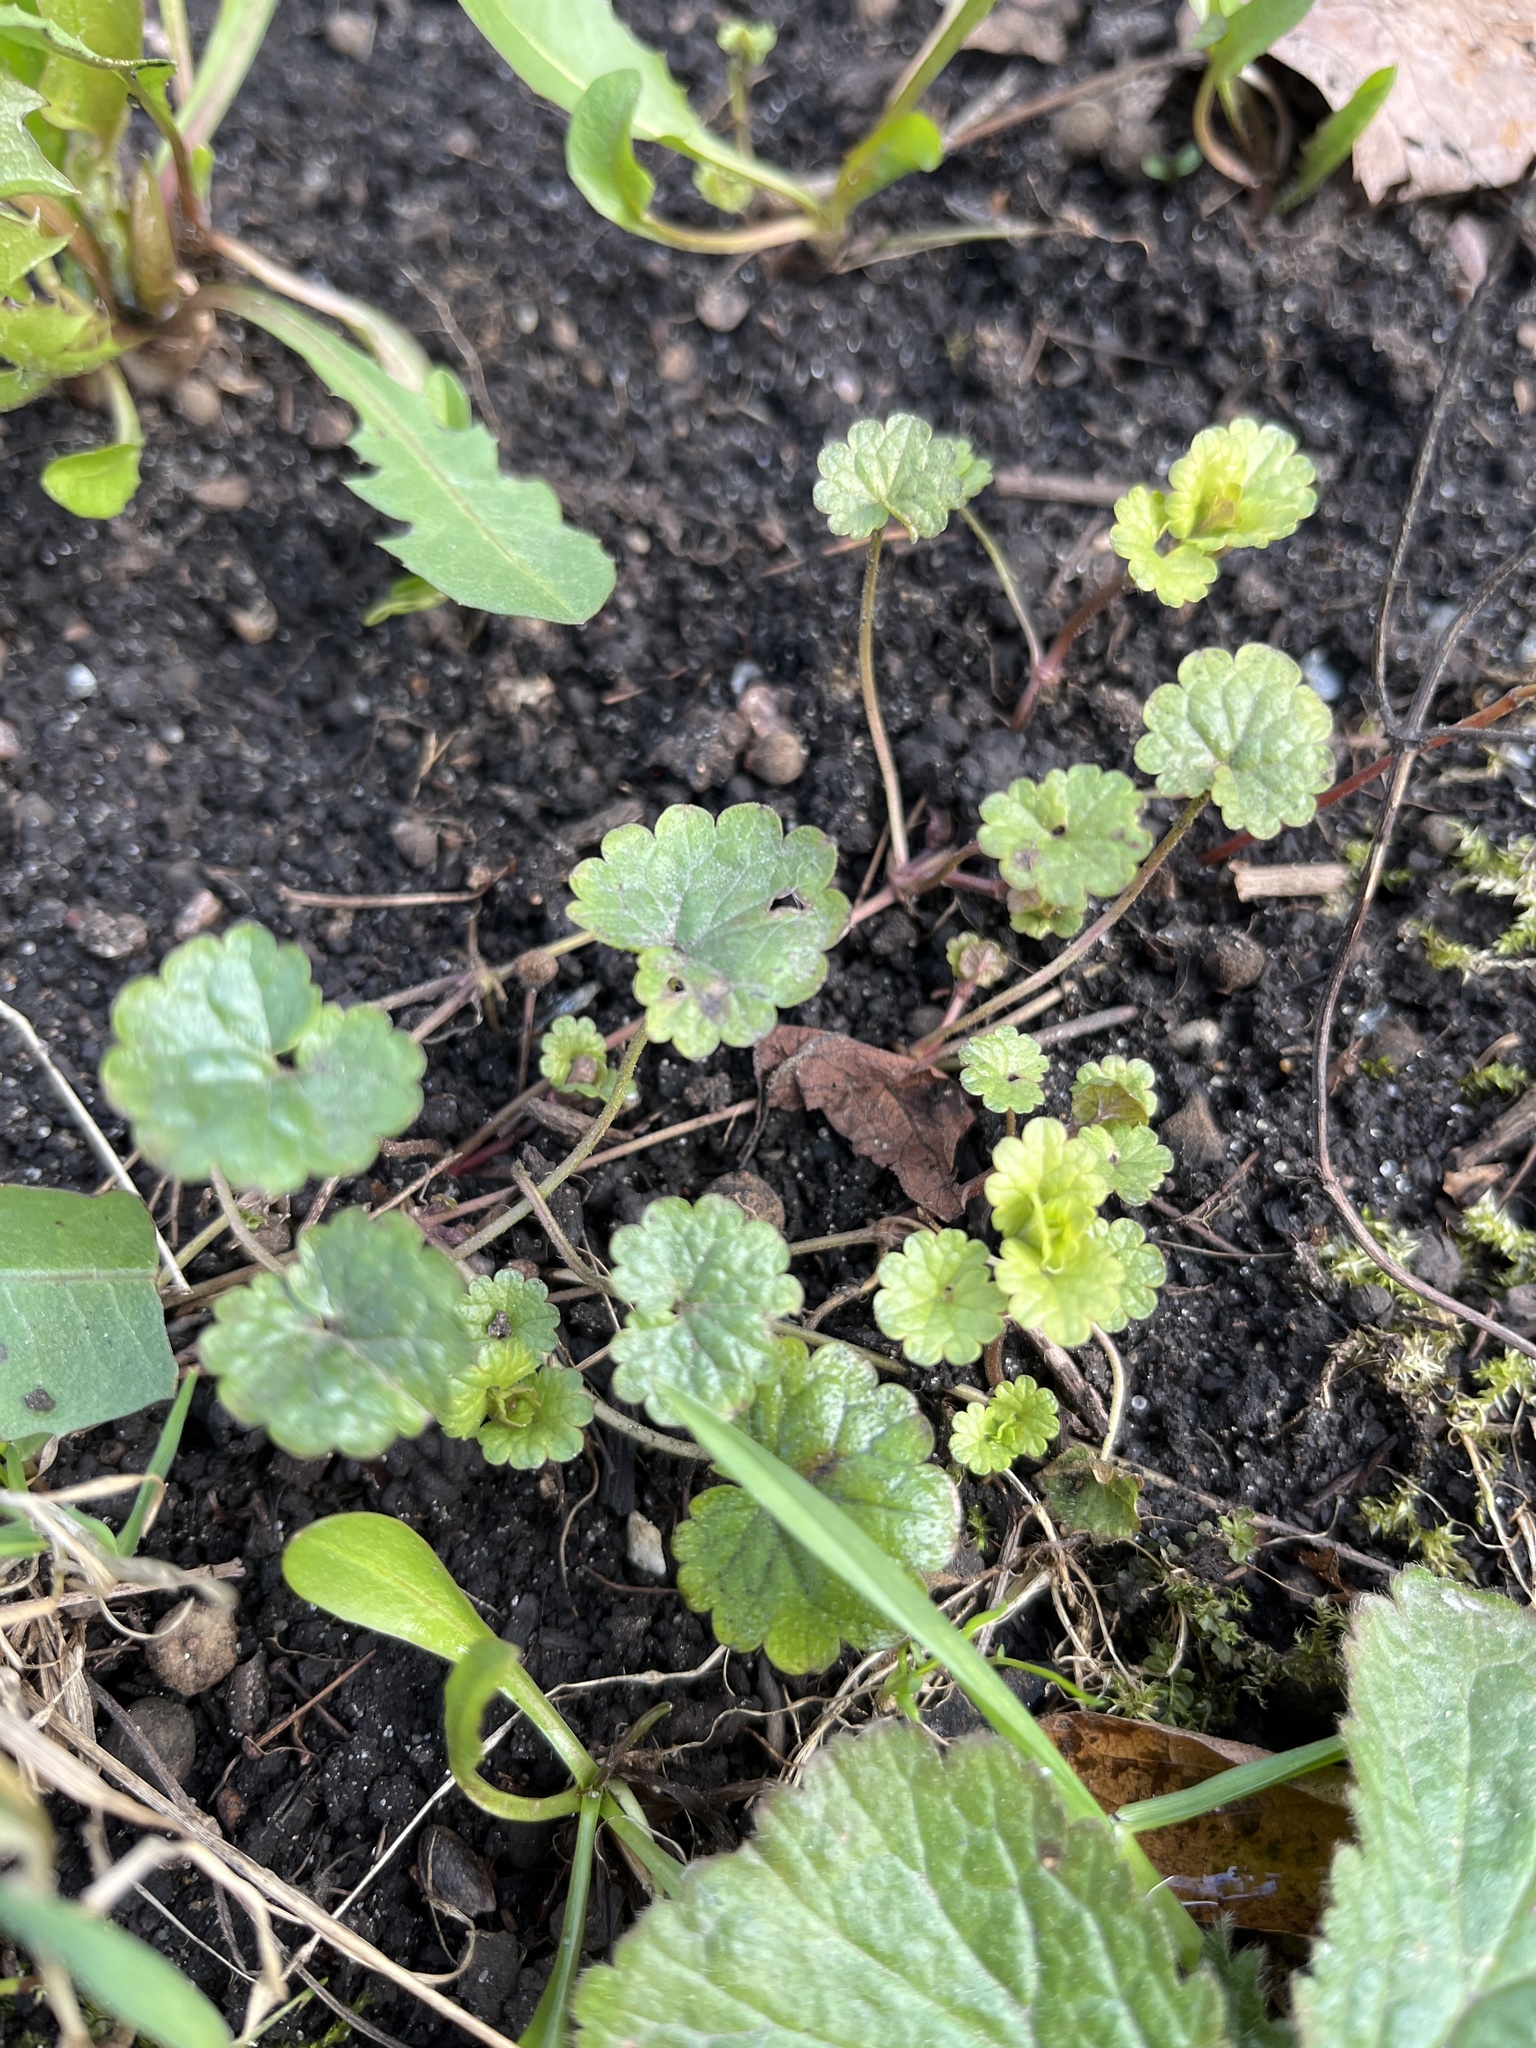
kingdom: Plantae
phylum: Tracheophyta
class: Magnoliopsida
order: Lamiales
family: Lamiaceae
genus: Glechoma
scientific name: Glechoma hederacea
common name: Ground ivy
